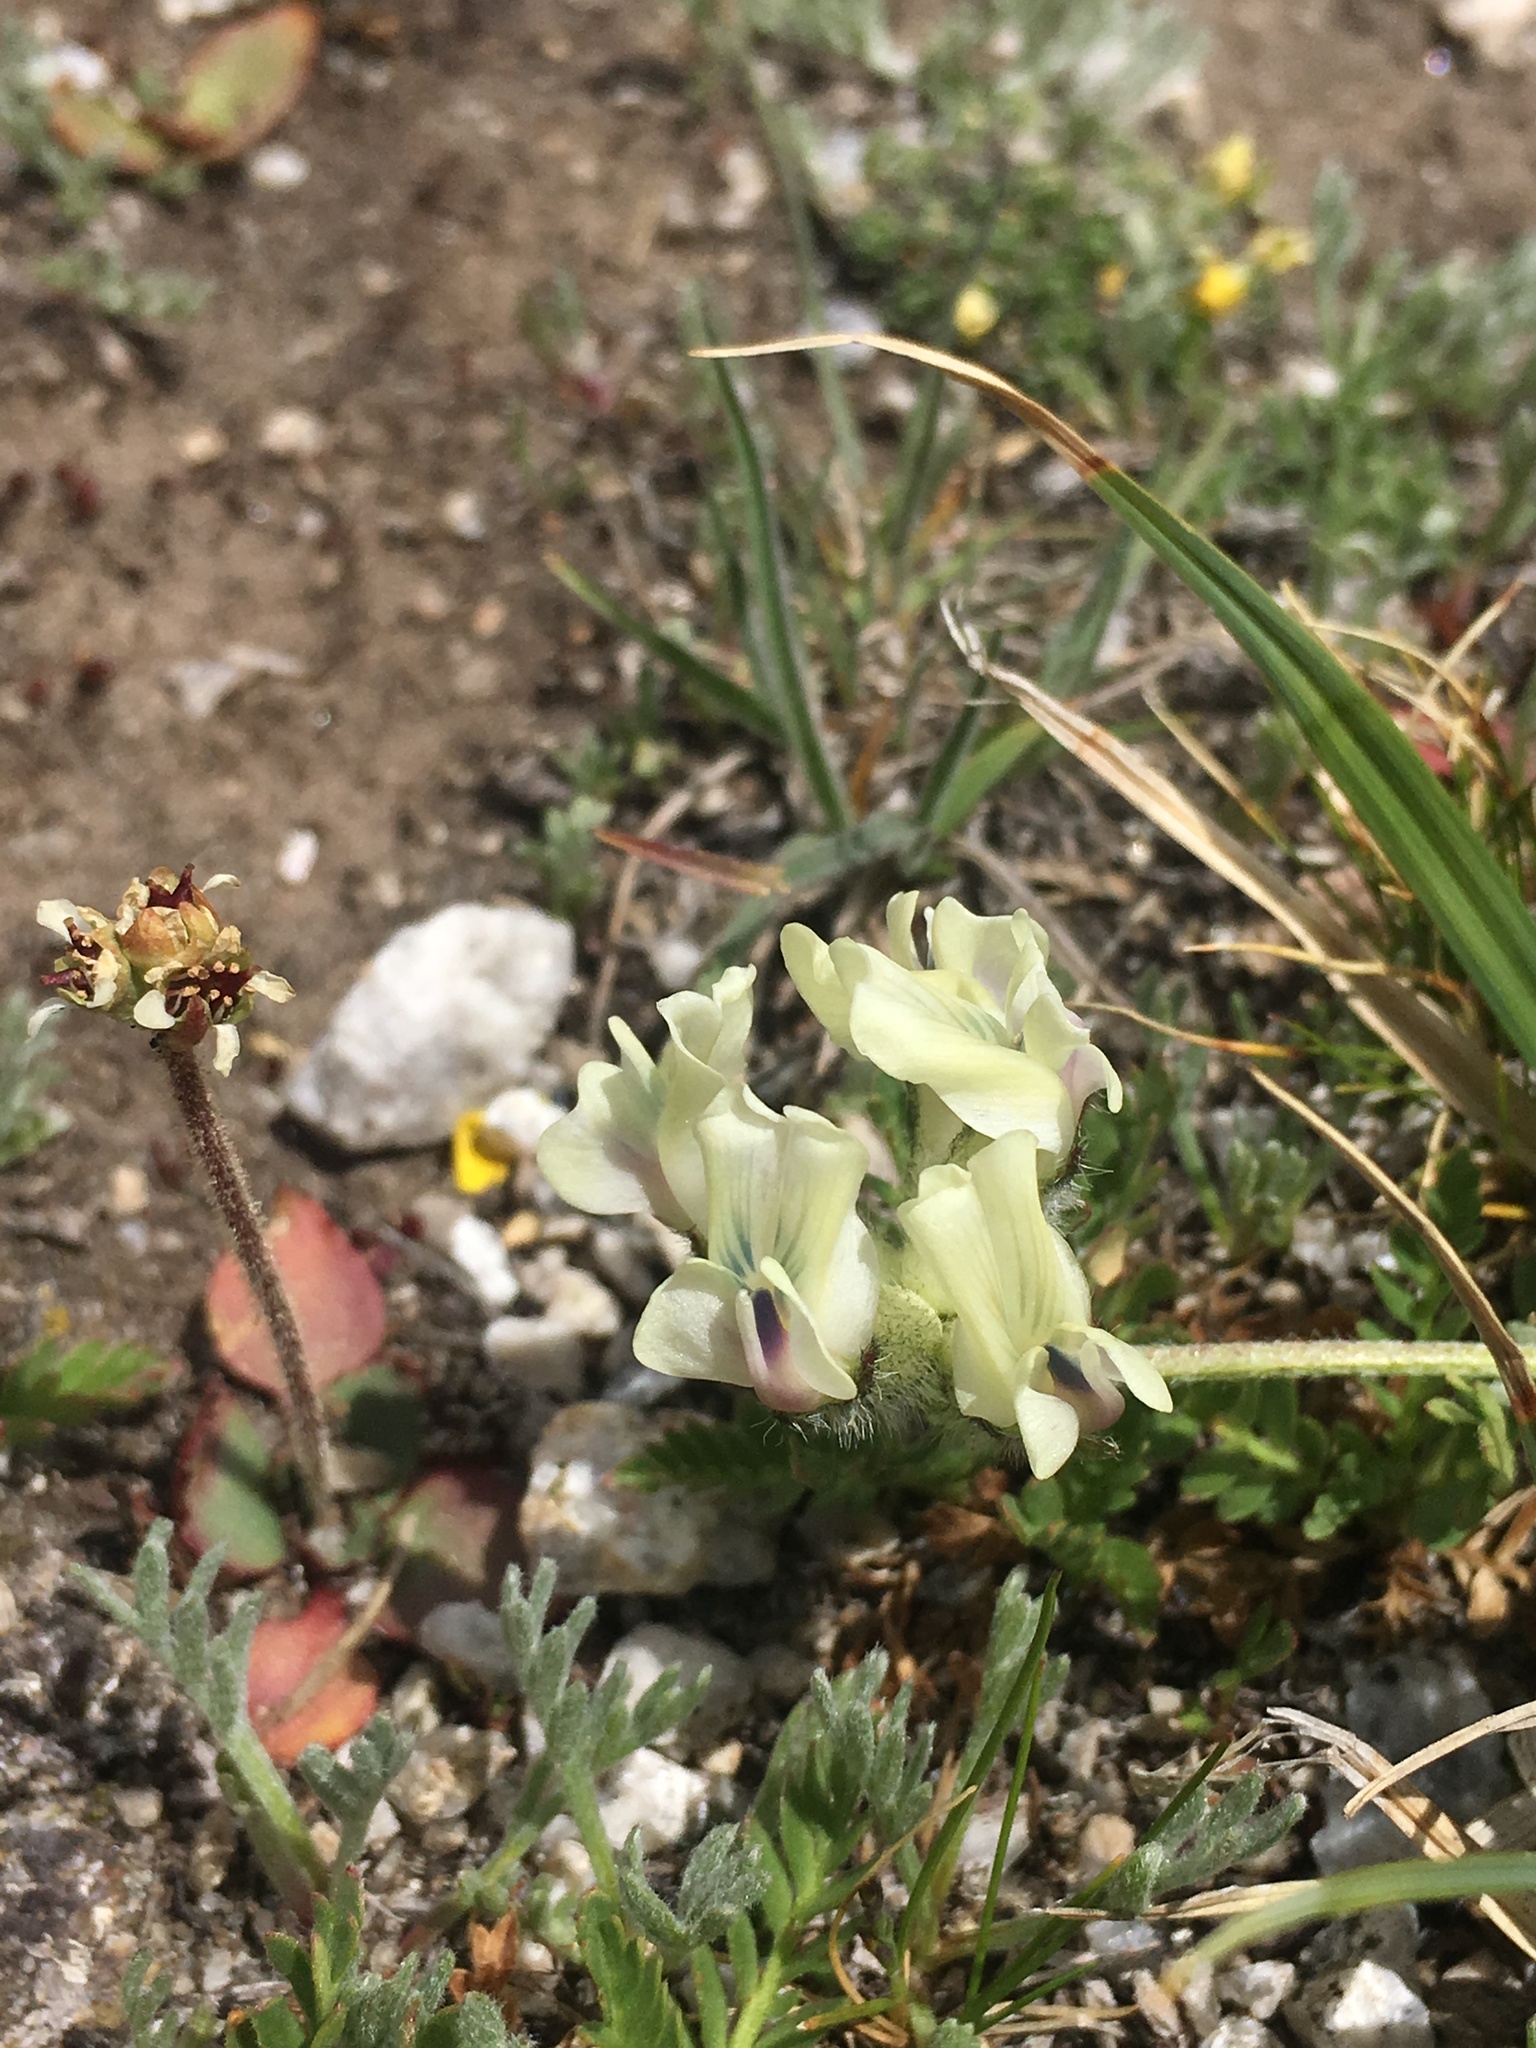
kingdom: Plantae
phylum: Tracheophyta
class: Magnoliopsida
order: Fabales
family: Fabaceae
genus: Oxytropis
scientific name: Oxytropis campestris
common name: Field locoweed
